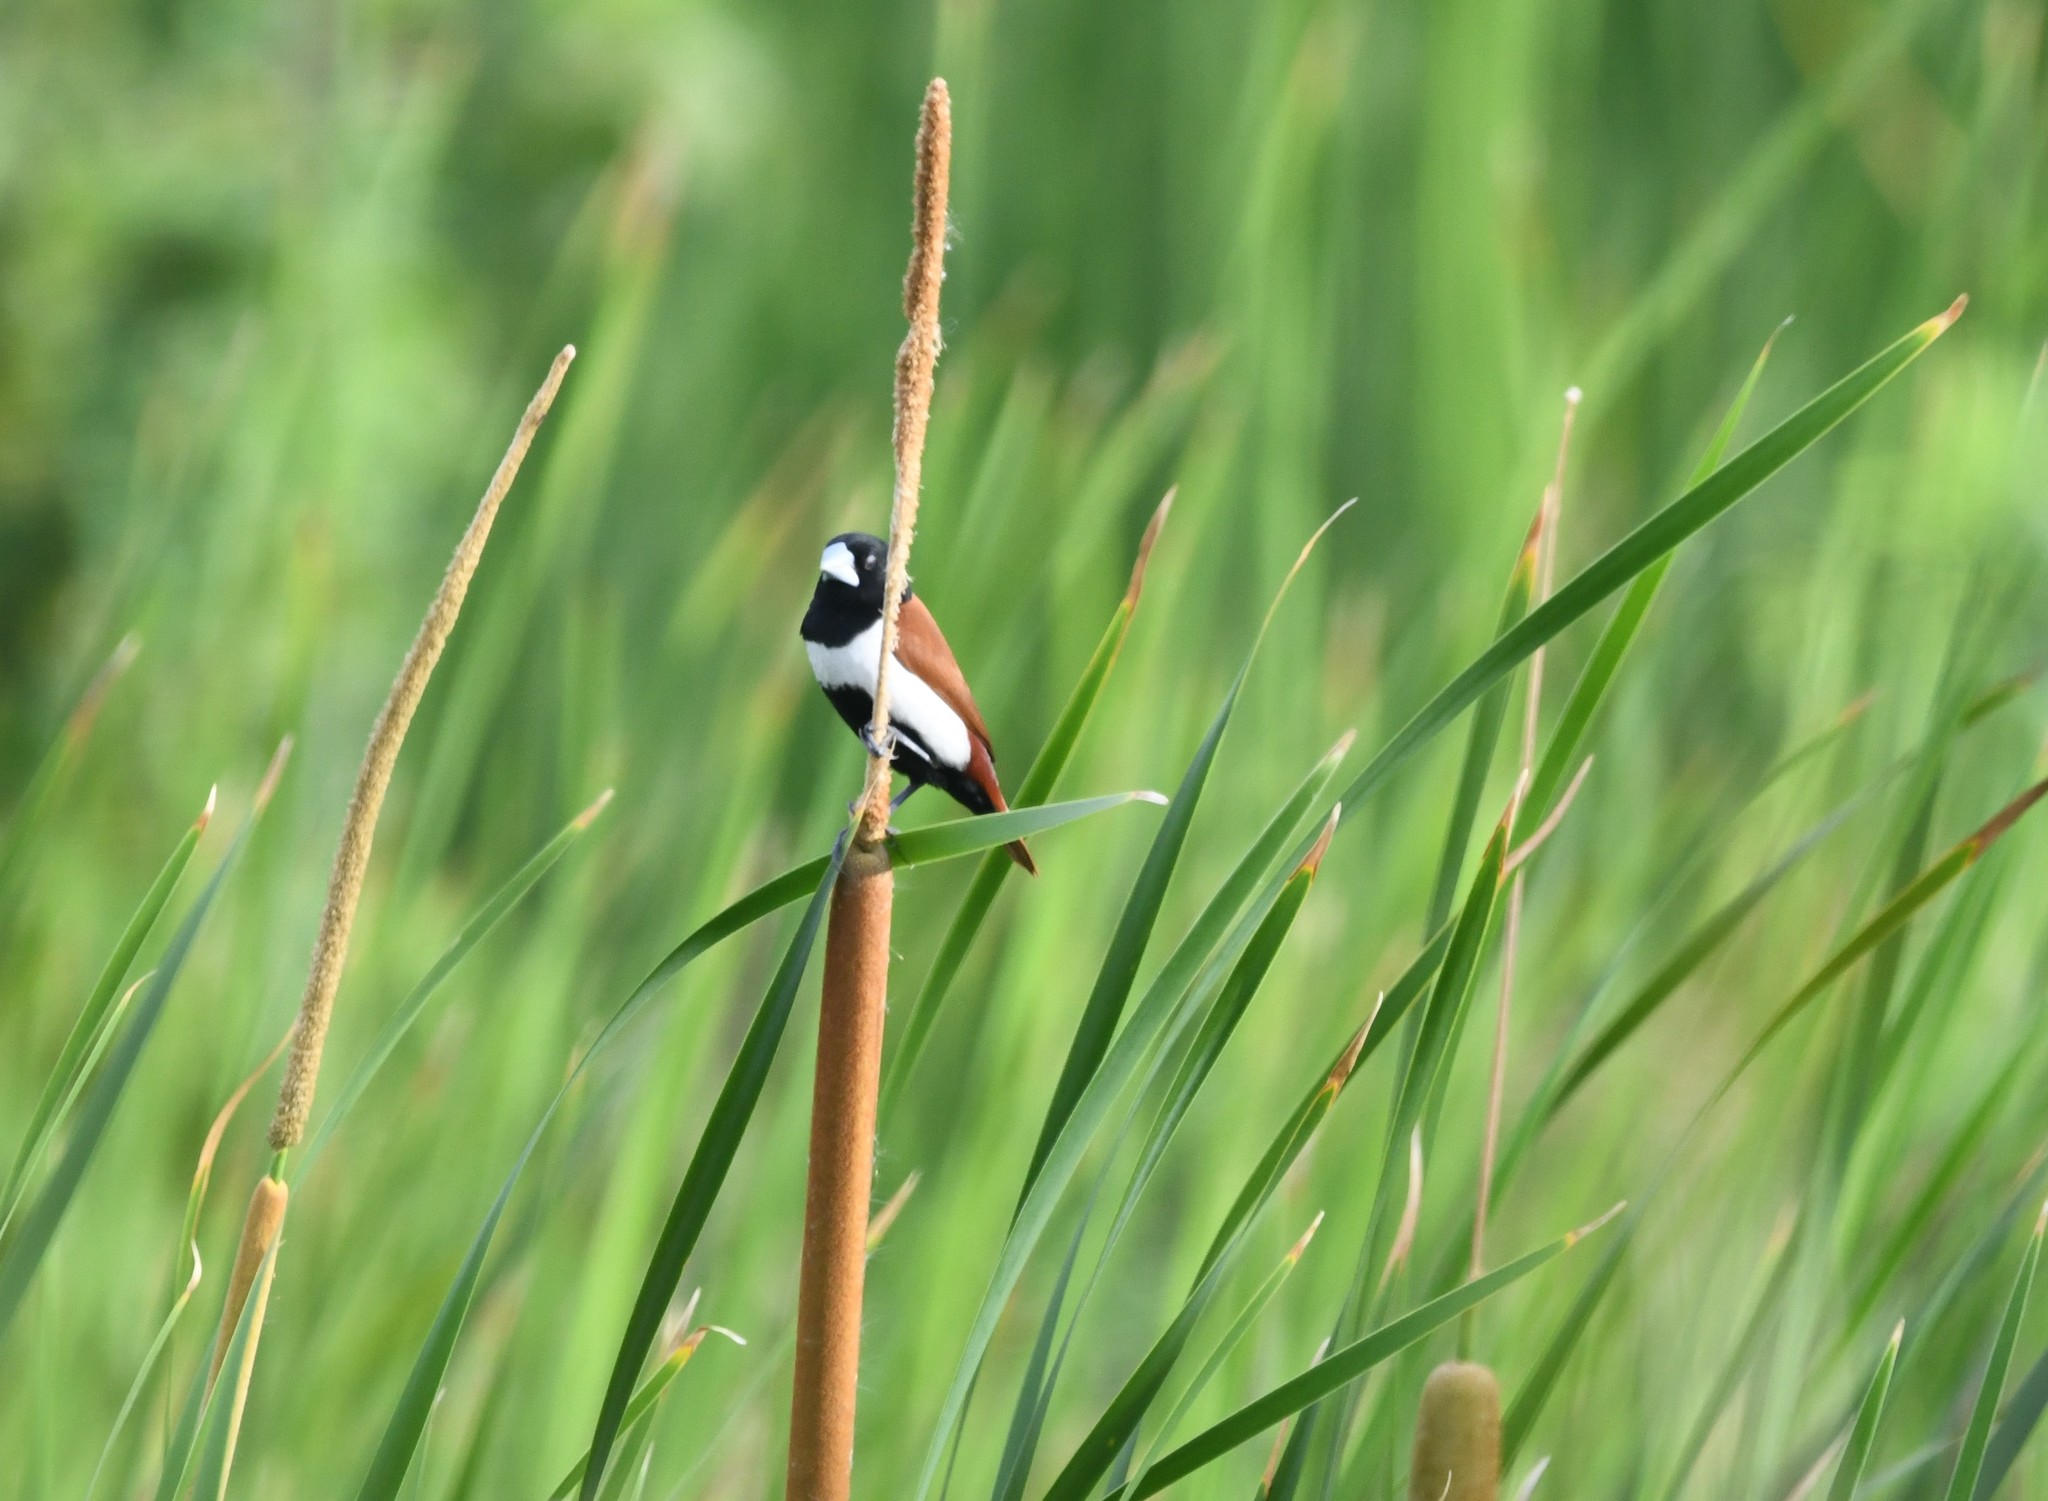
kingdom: Animalia
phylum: Chordata
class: Aves
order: Passeriformes
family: Estrildidae
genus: Lonchura
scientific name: Lonchura malacca
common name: Tricolored munia
